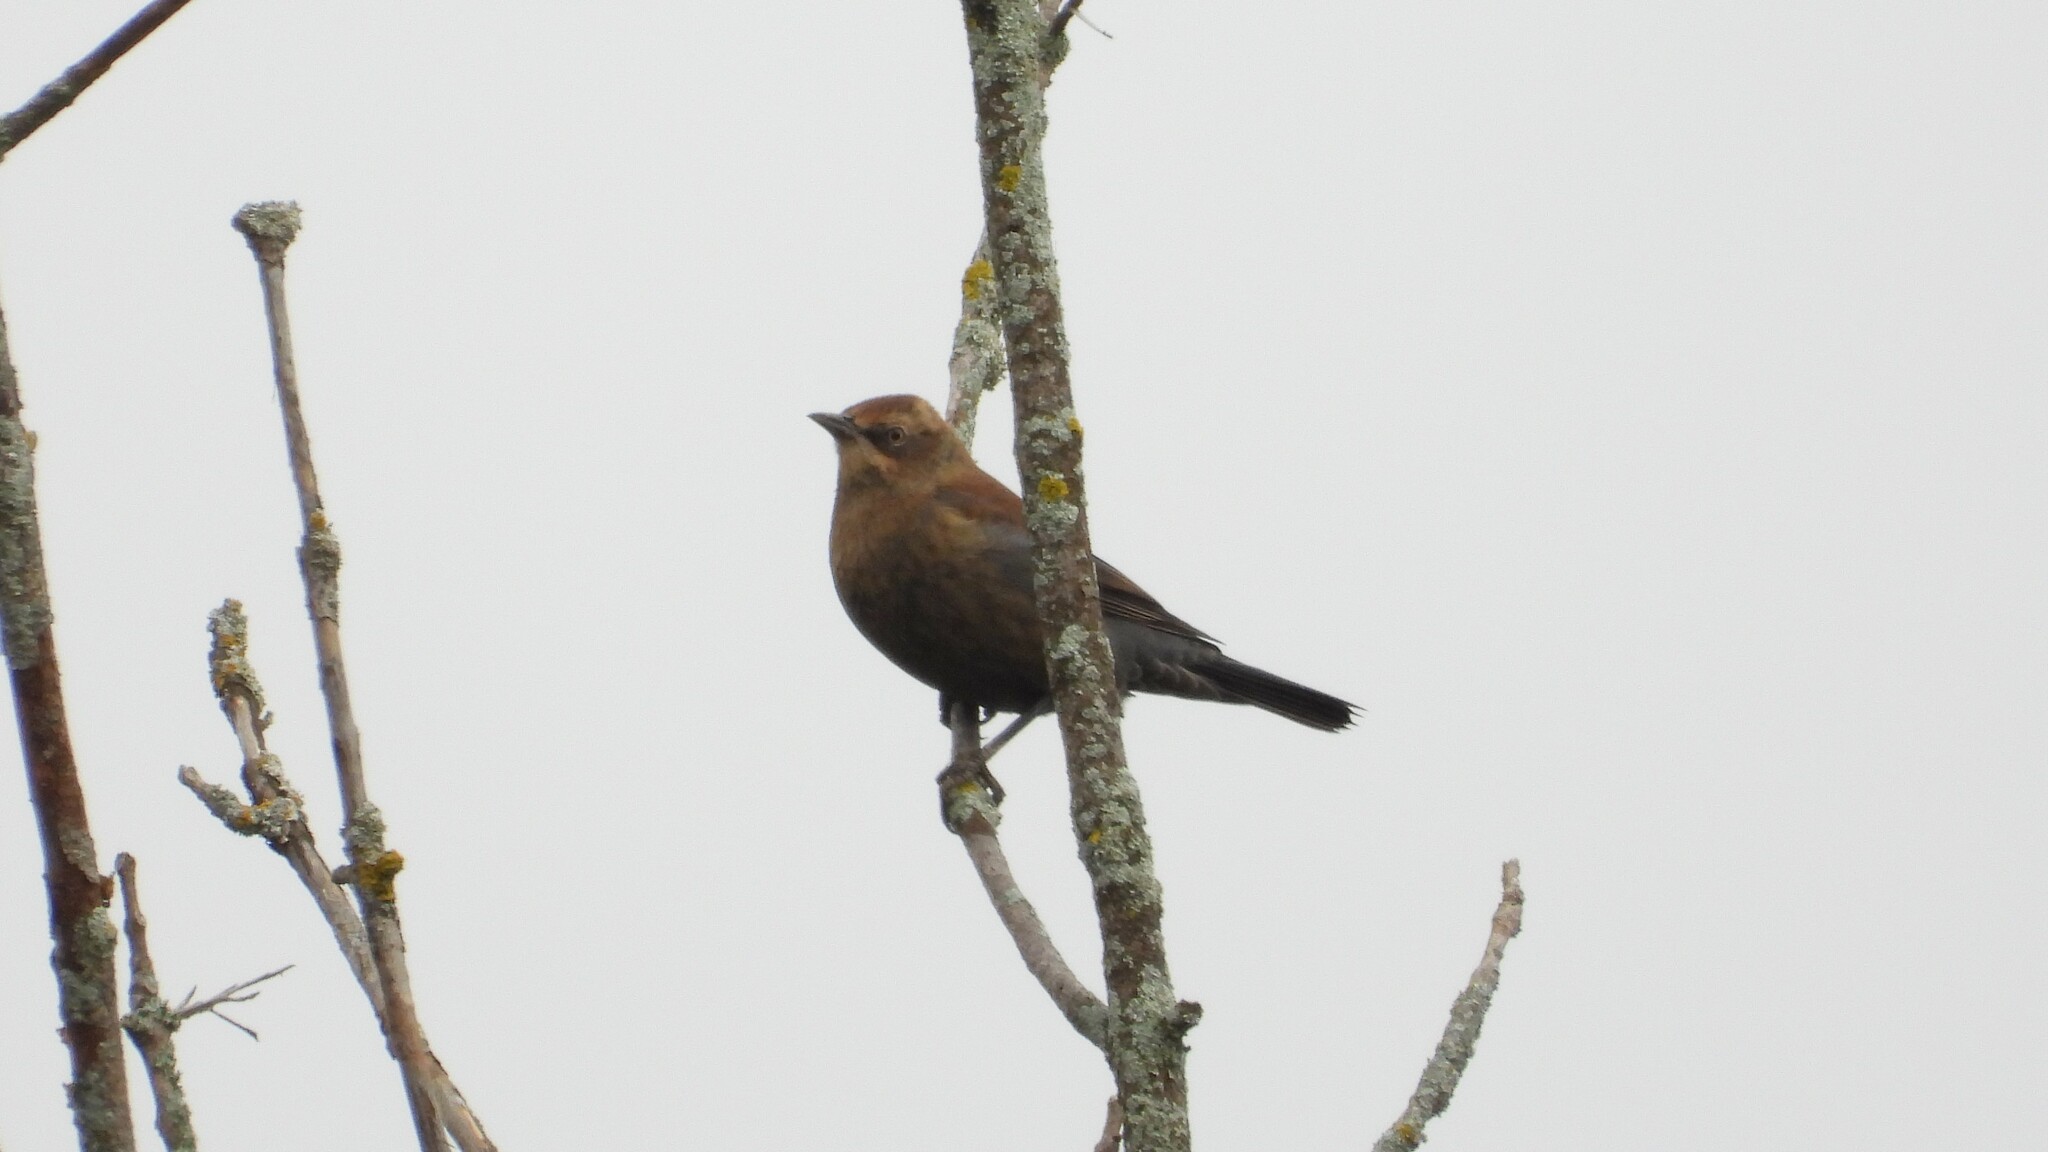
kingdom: Animalia
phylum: Chordata
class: Aves
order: Passeriformes
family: Icteridae
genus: Euphagus
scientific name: Euphagus carolinus
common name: Rusty blackbird
